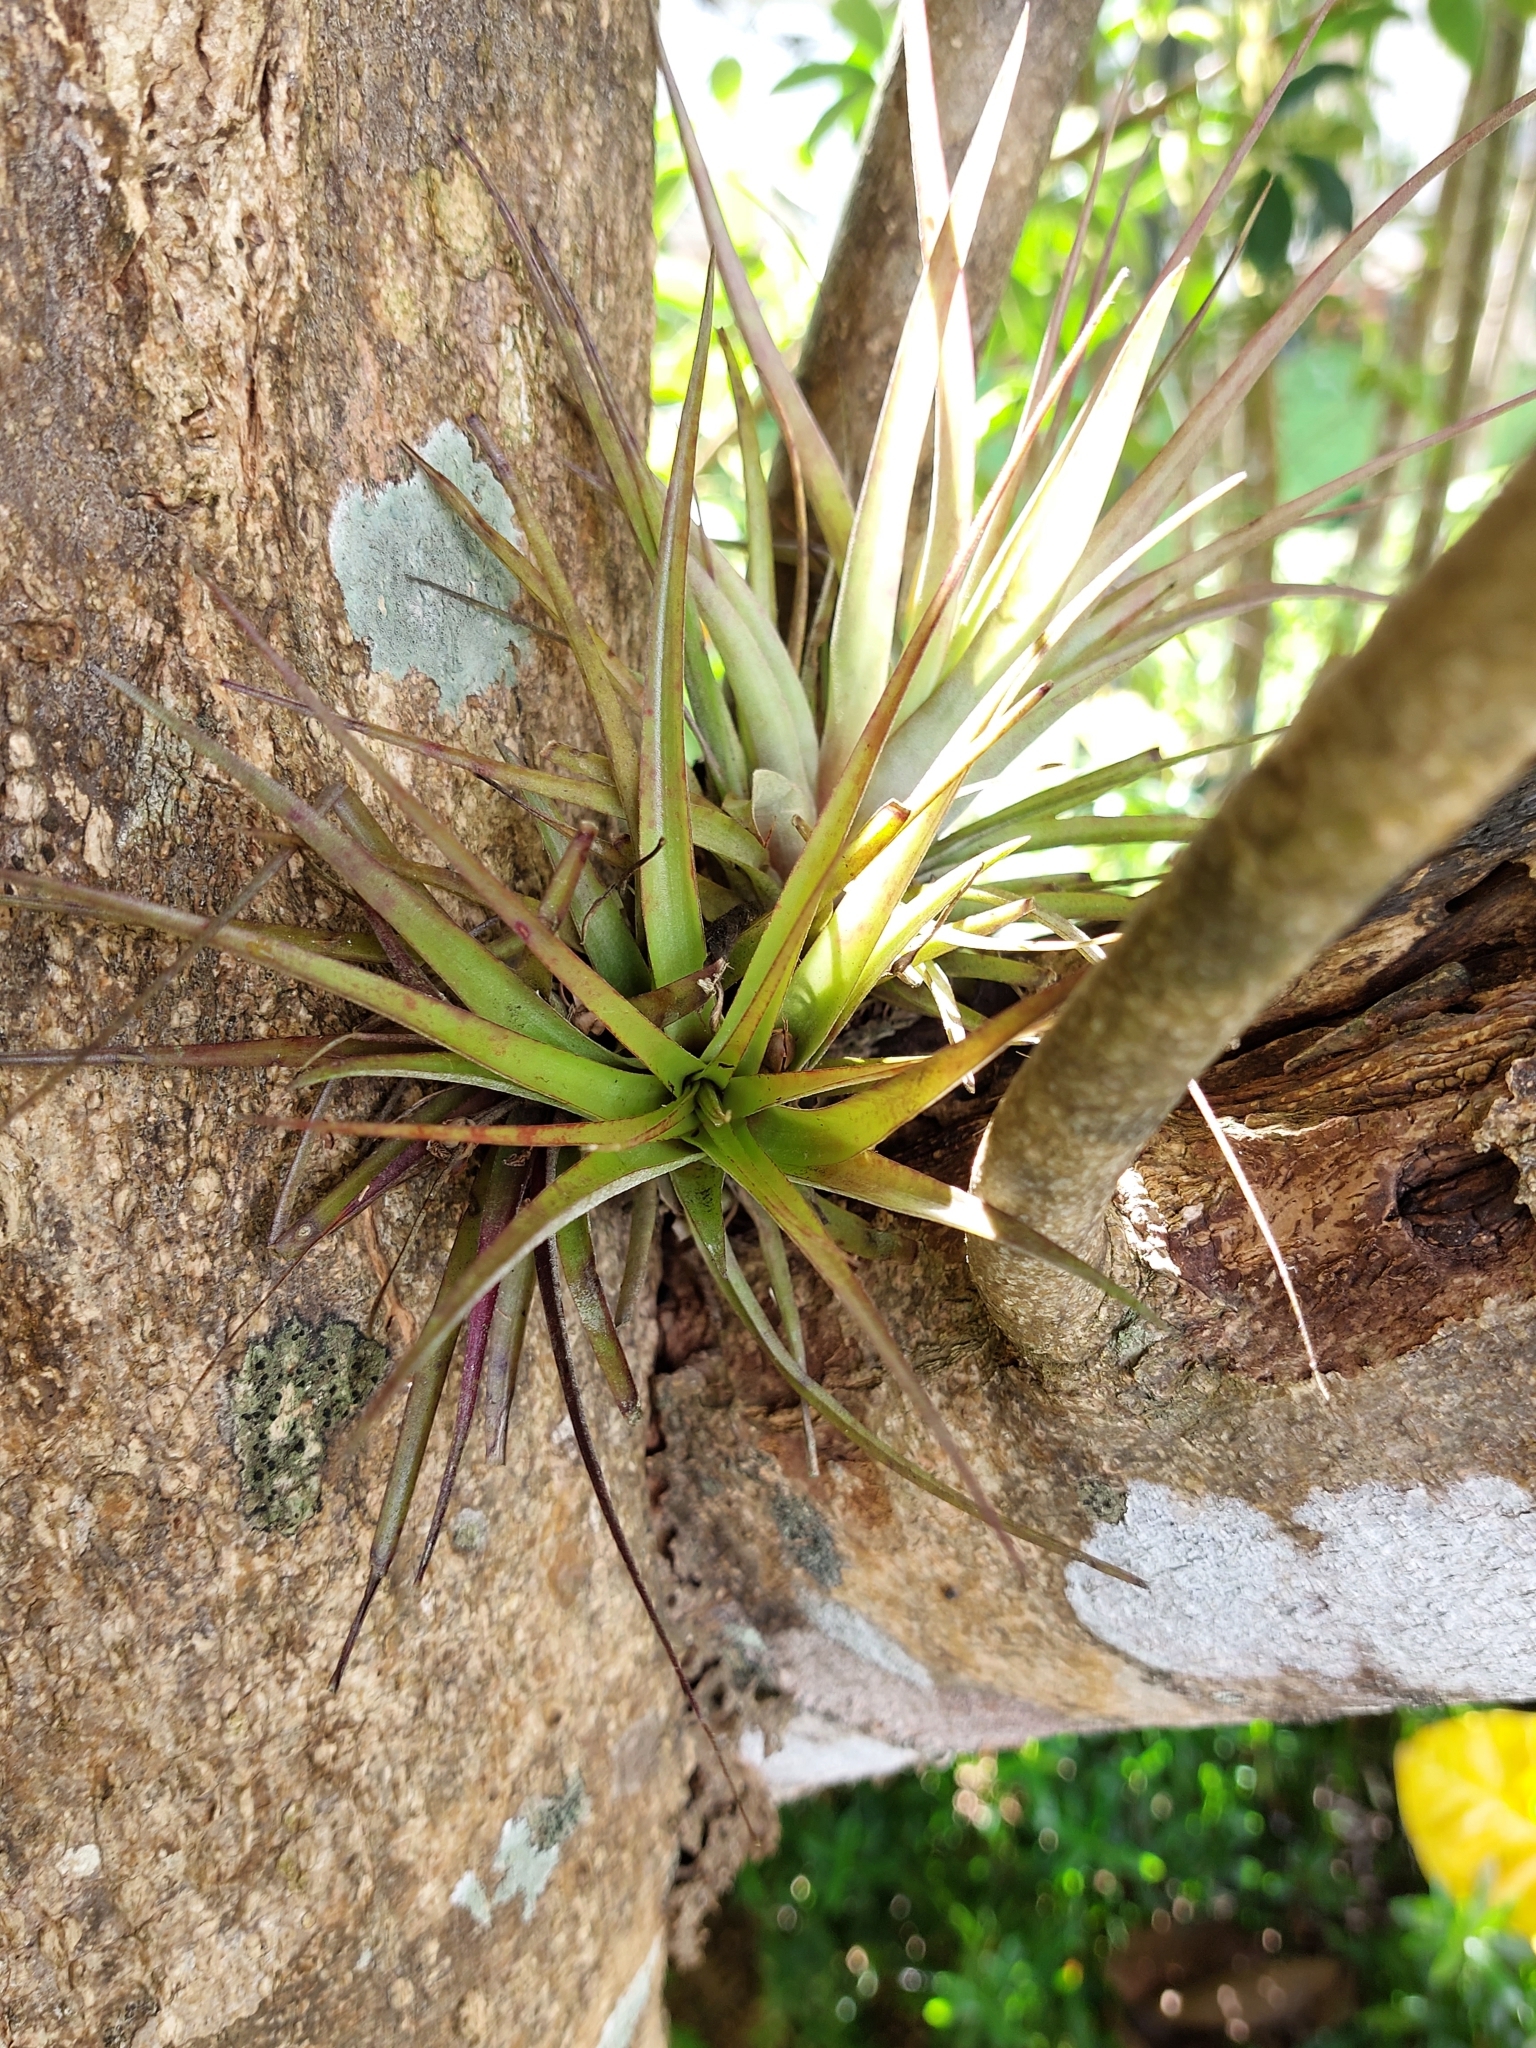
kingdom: Plantae
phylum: Tracheophyta
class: Liliopsida
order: Poales
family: Bromeliaceae
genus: Bromelia
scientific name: Bromelia pinguin
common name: Pinguin
